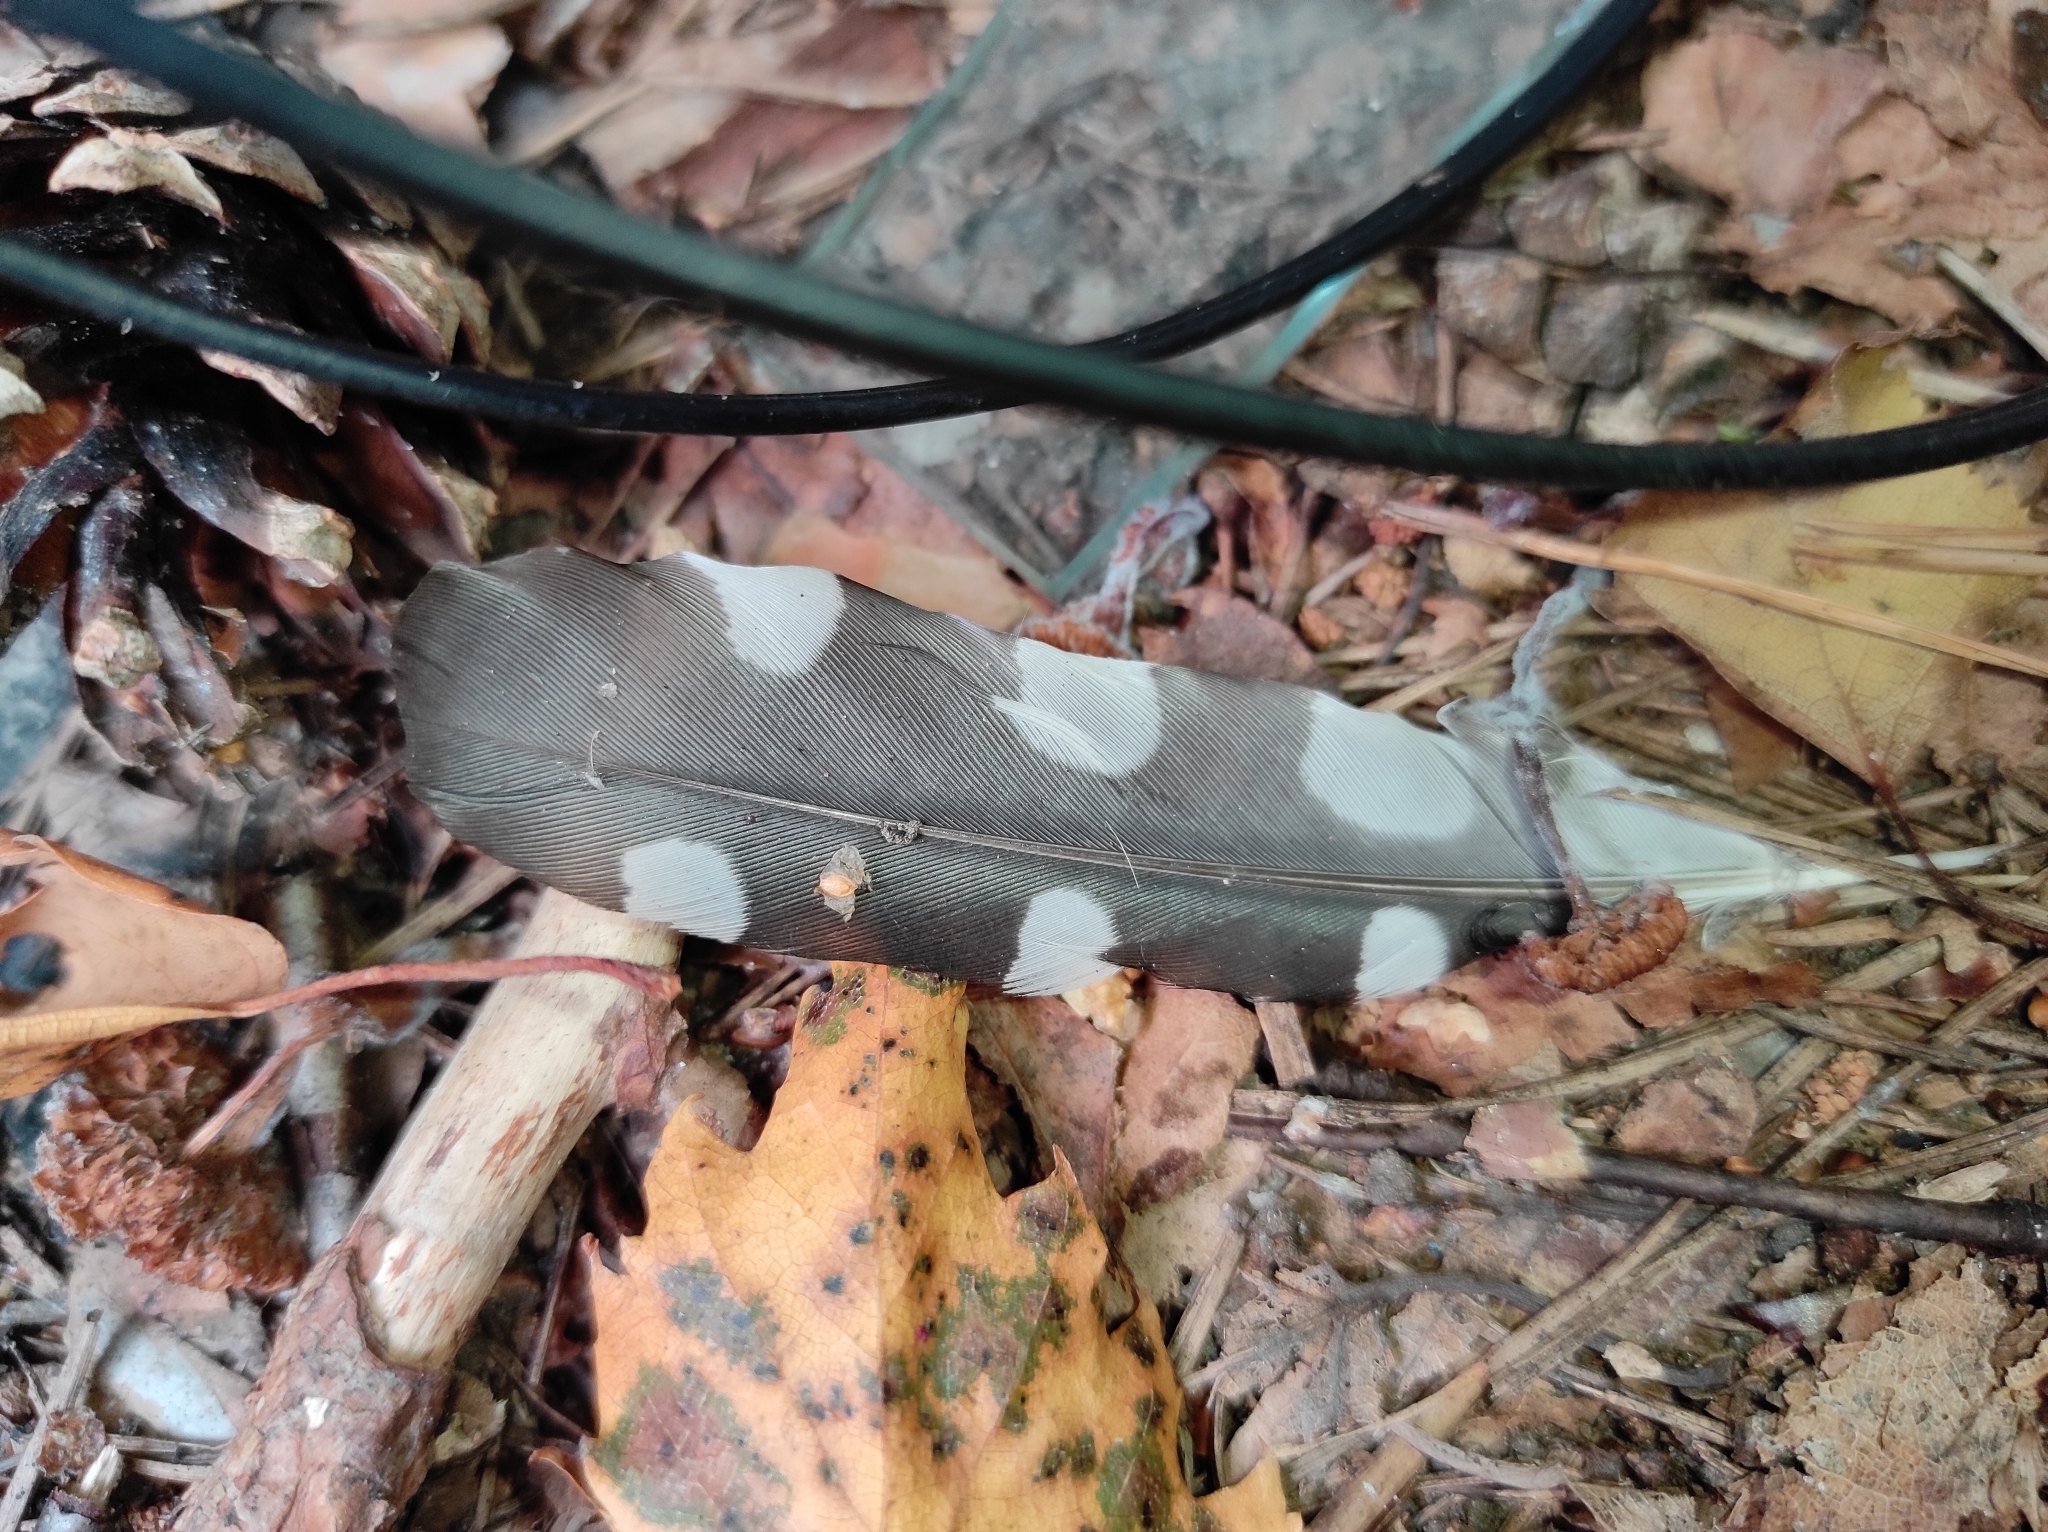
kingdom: Animalia
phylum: Chordata
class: Aves
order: Piciformes
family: Picidae
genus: Dendrocopos
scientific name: Dendrocopos major
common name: Great spotted woodpecker
